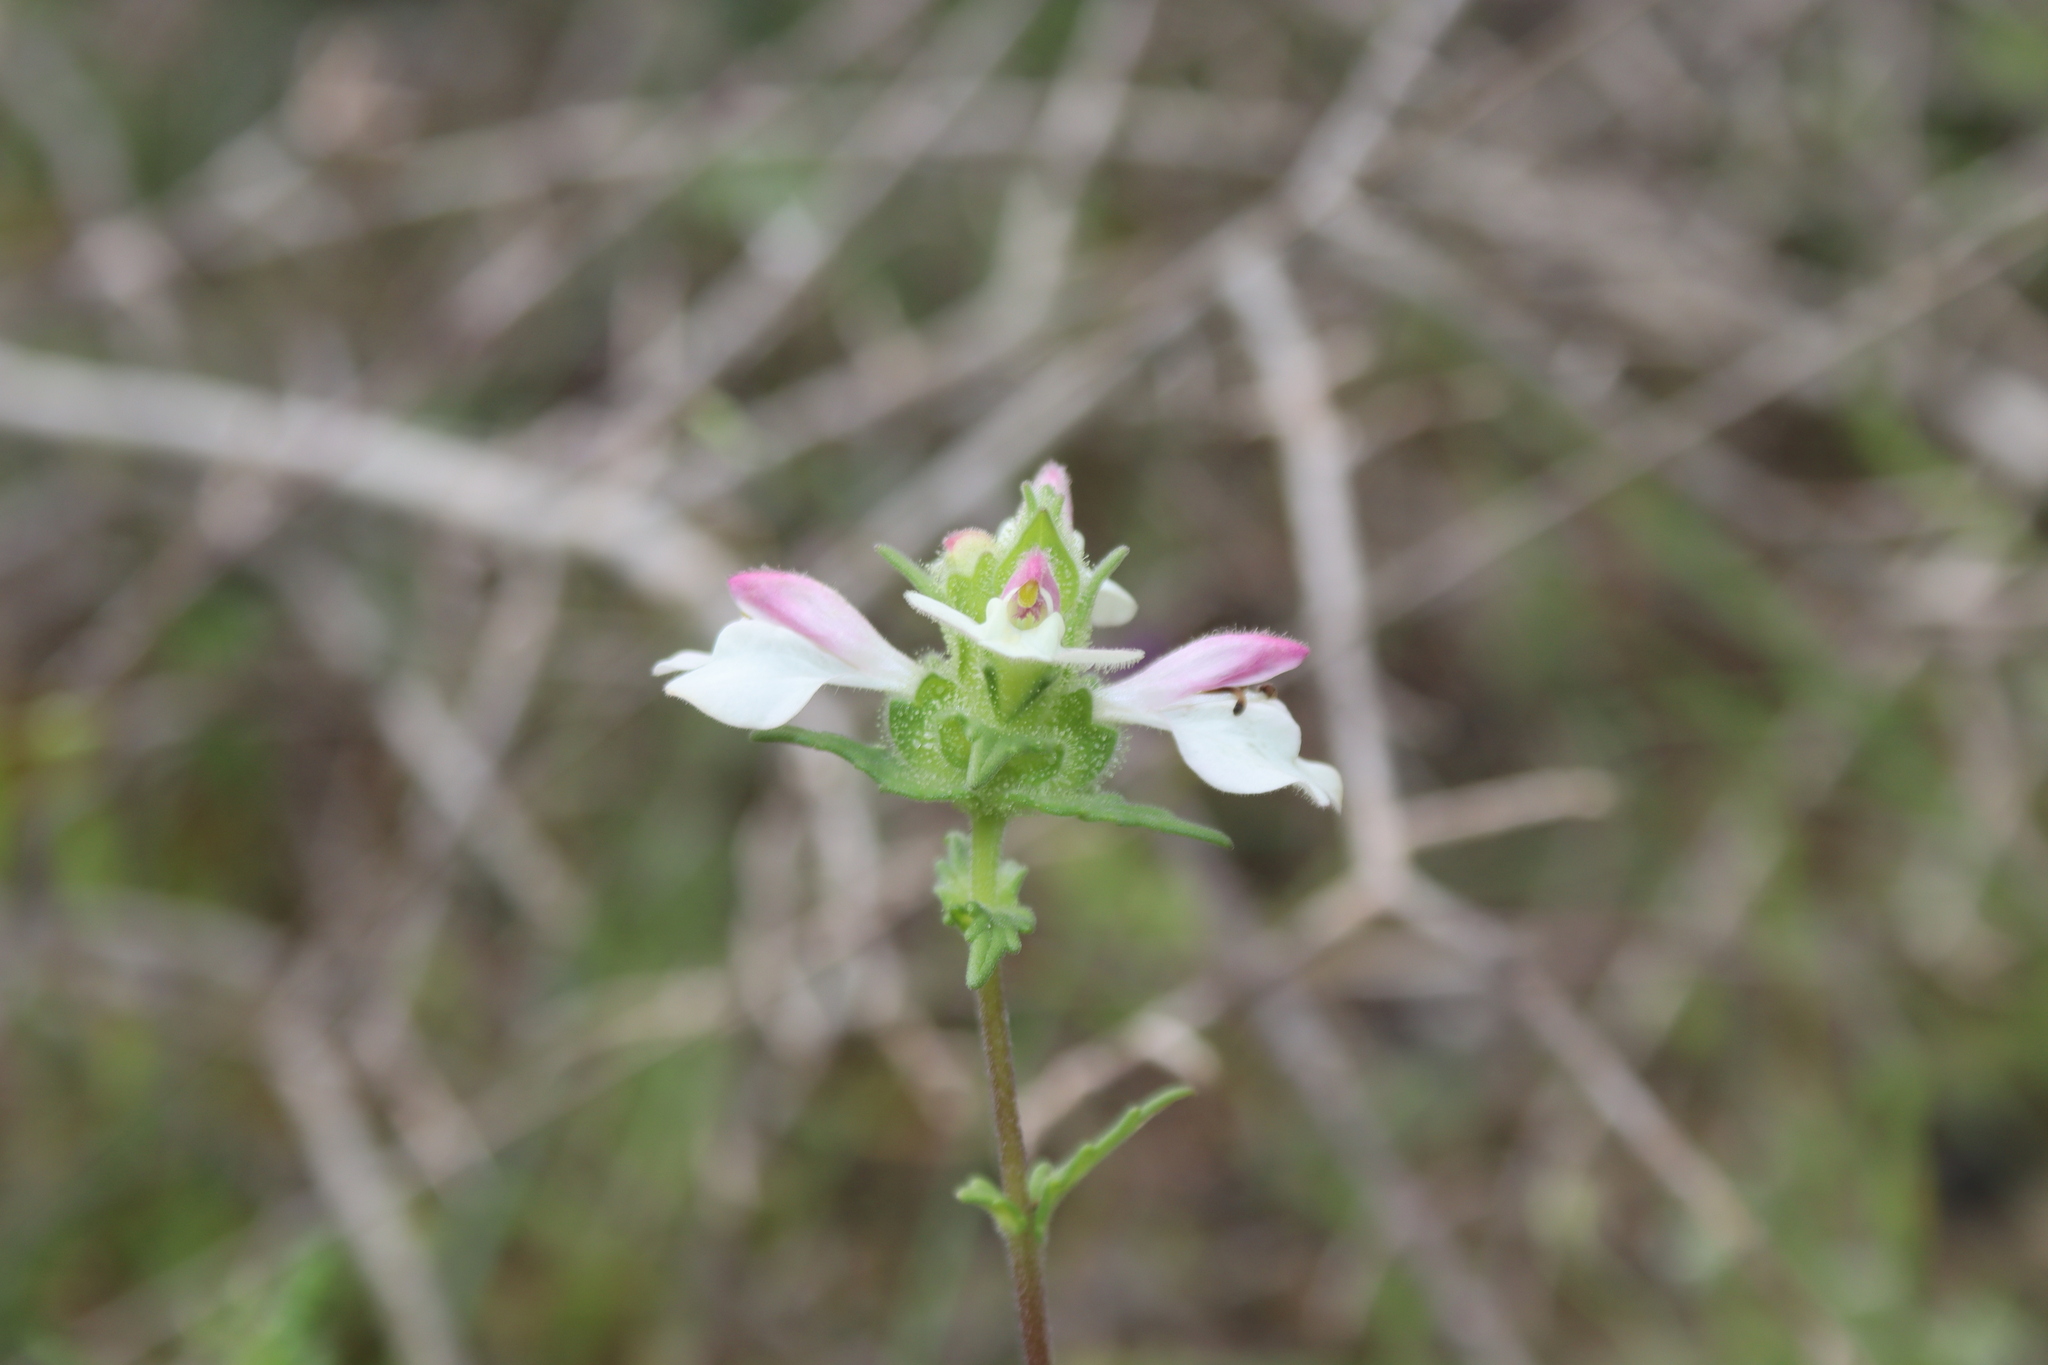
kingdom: Plantae
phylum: Tracheophyta
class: Magnoliopsida
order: Lamiales
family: Orobanchaceae
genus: Bellardia
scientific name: Bellardia trixago
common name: Mediterranean lineseed
